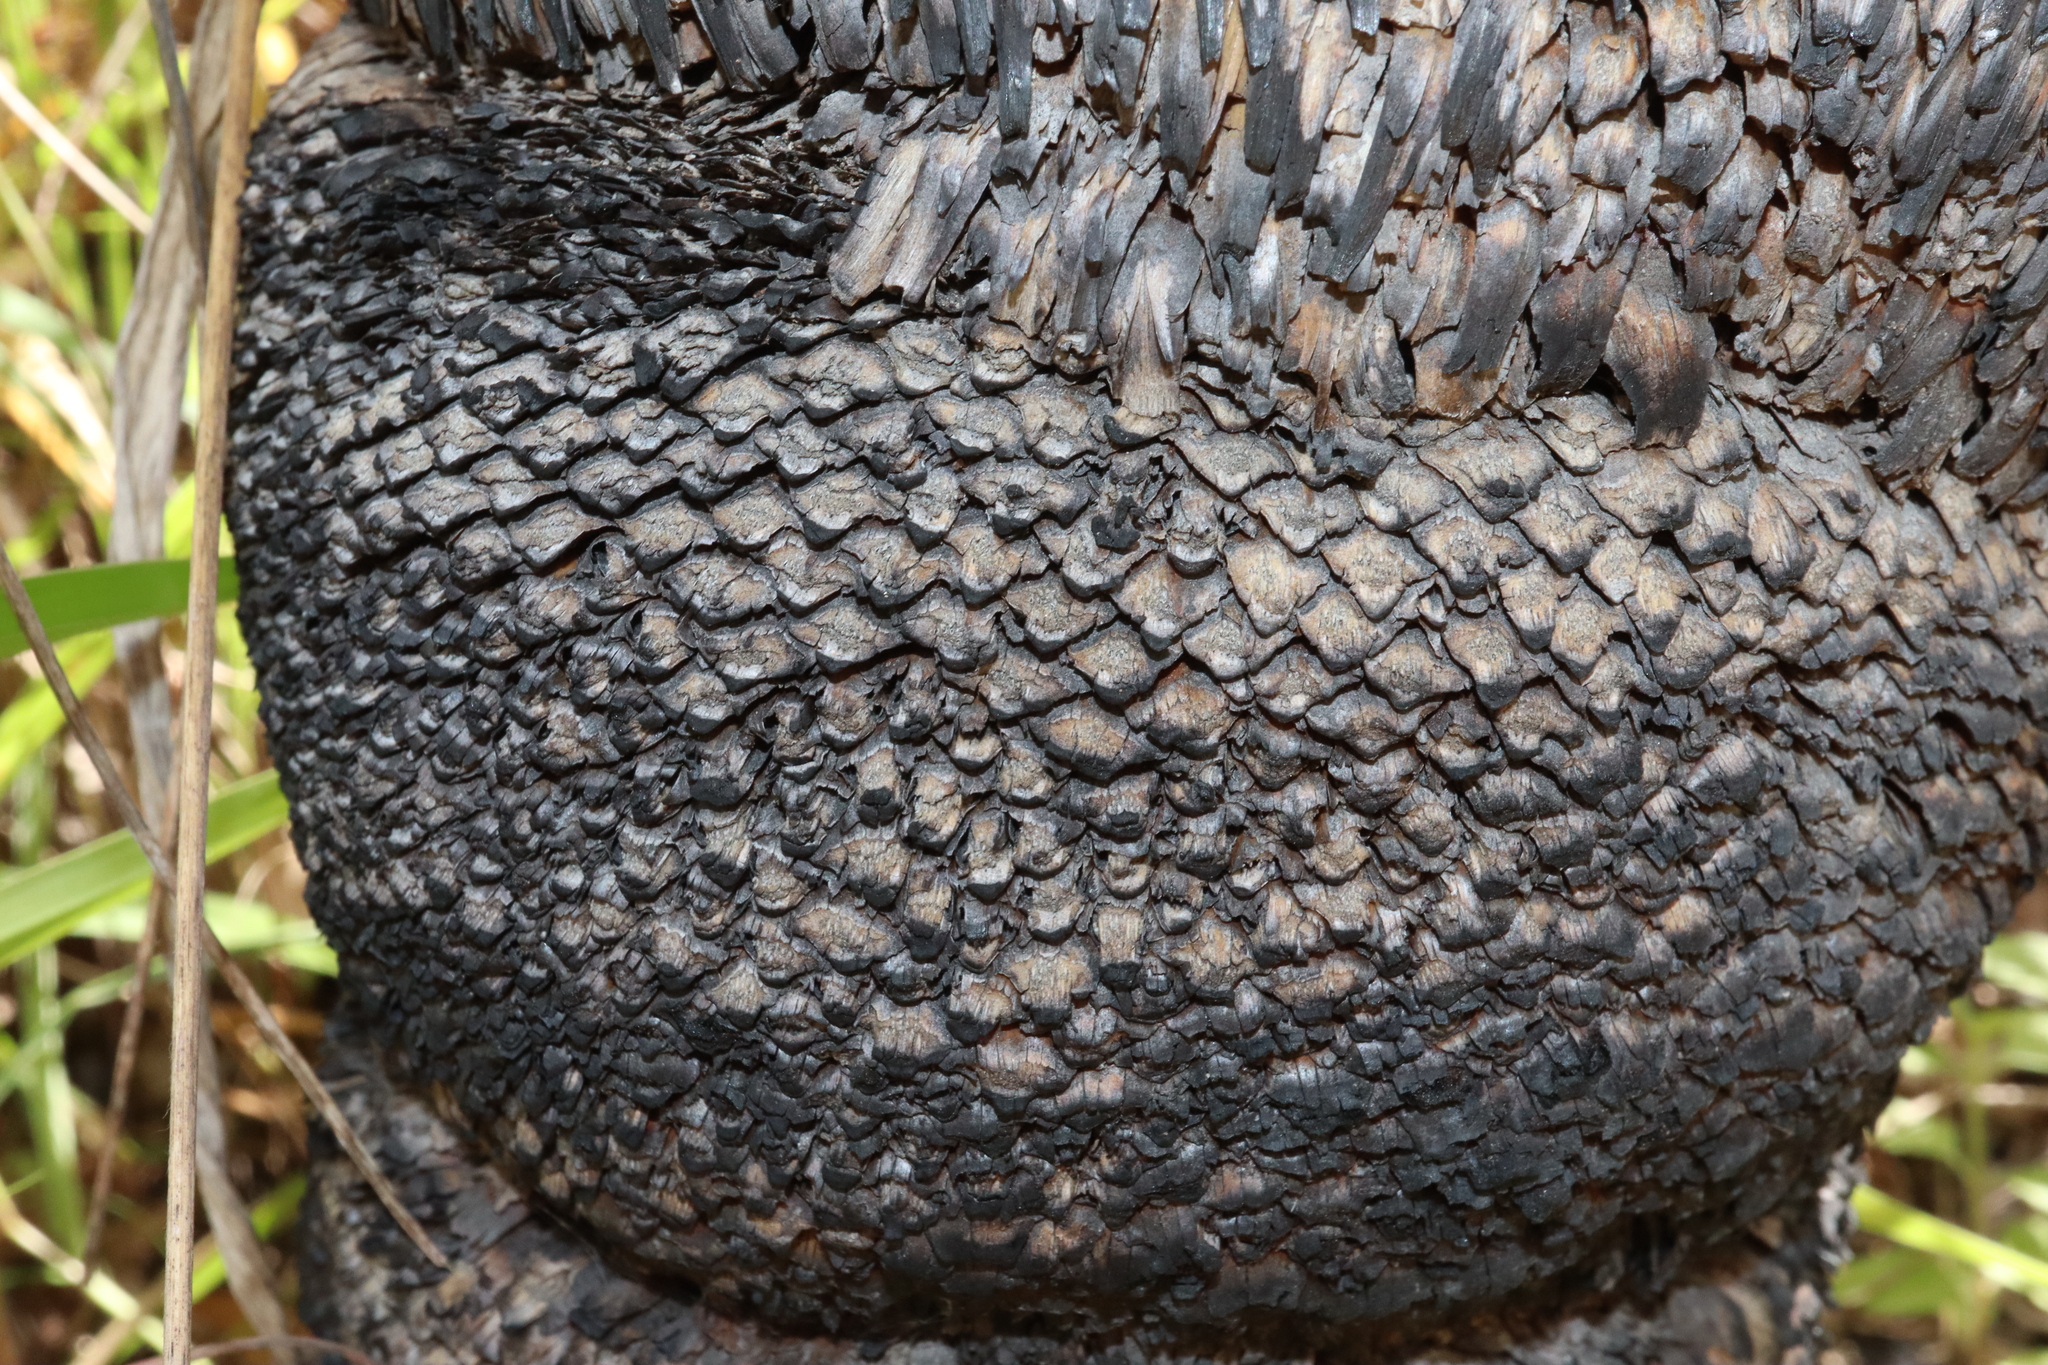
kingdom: Plantae
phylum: Tracheophyta
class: Liliopsida
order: Asparagales
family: Asphodelaceae
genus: Xanthorrhoea
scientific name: Xanthorrhoea johnsonii
